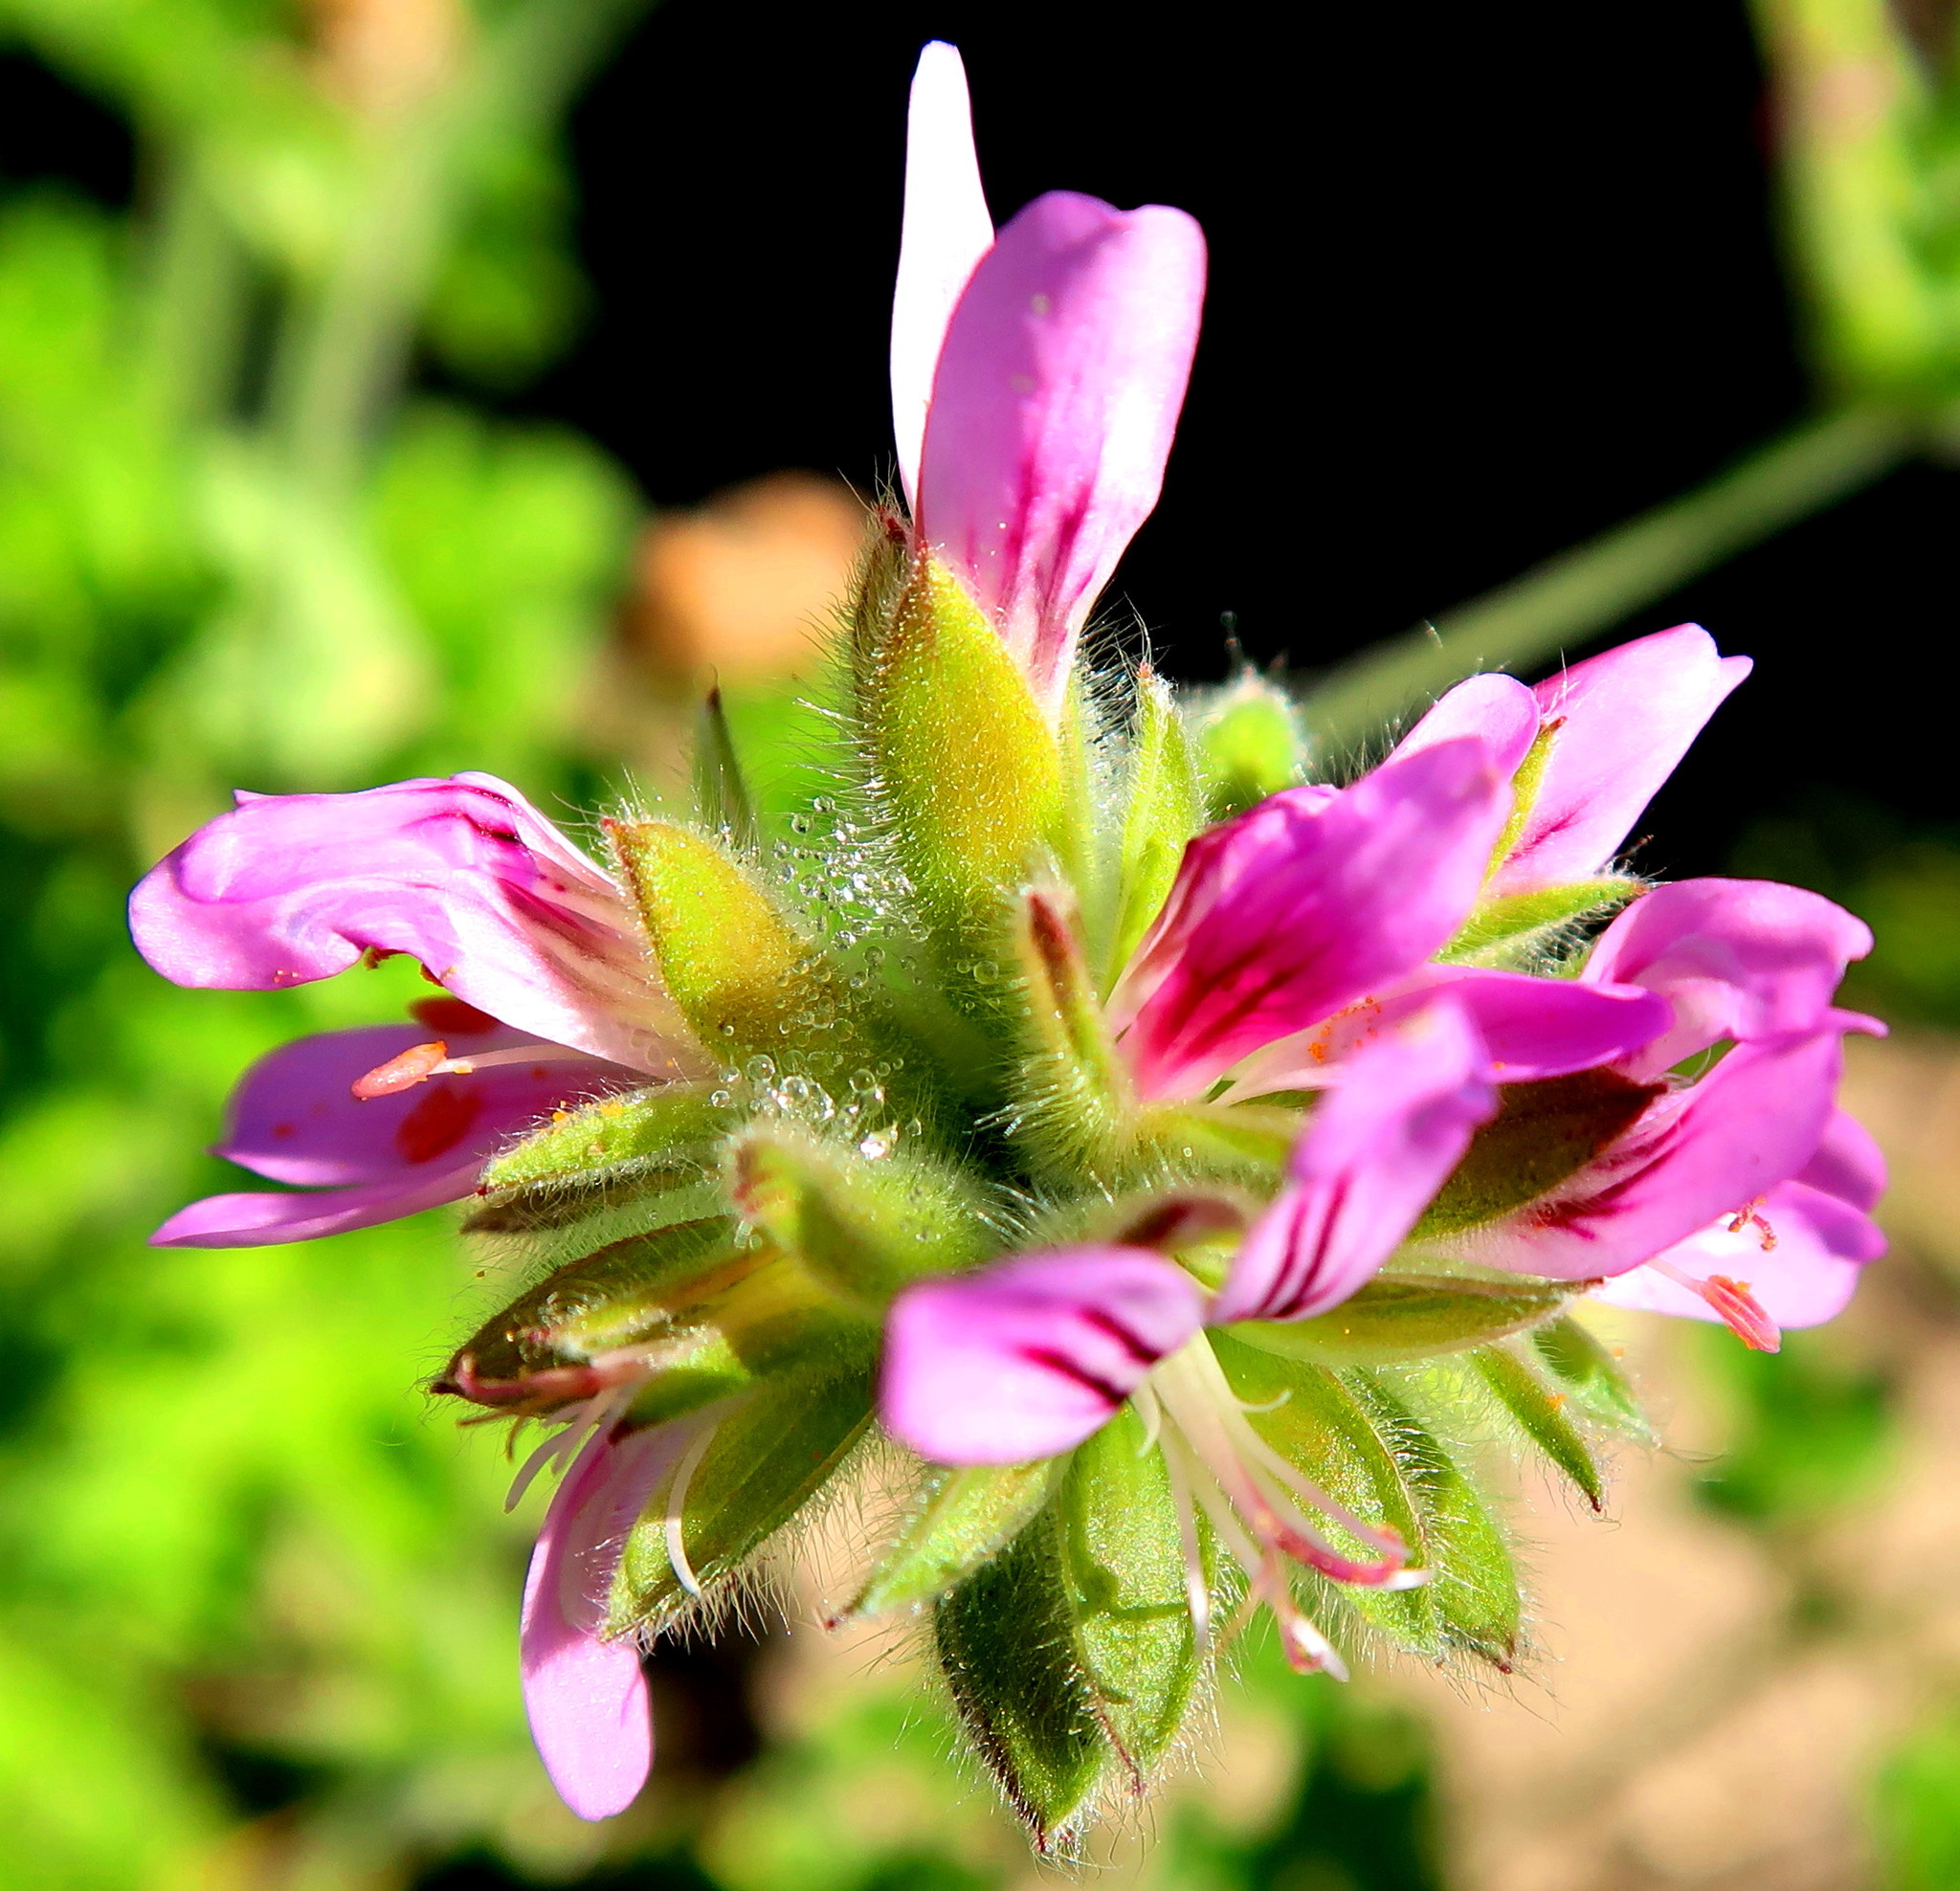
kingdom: Plantae
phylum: Tracheophyta
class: Magnoliopsida
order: Geraniales
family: Geraniaceae
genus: Pelargonium
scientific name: Pelargonium capitatum
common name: Rose scented geranium
